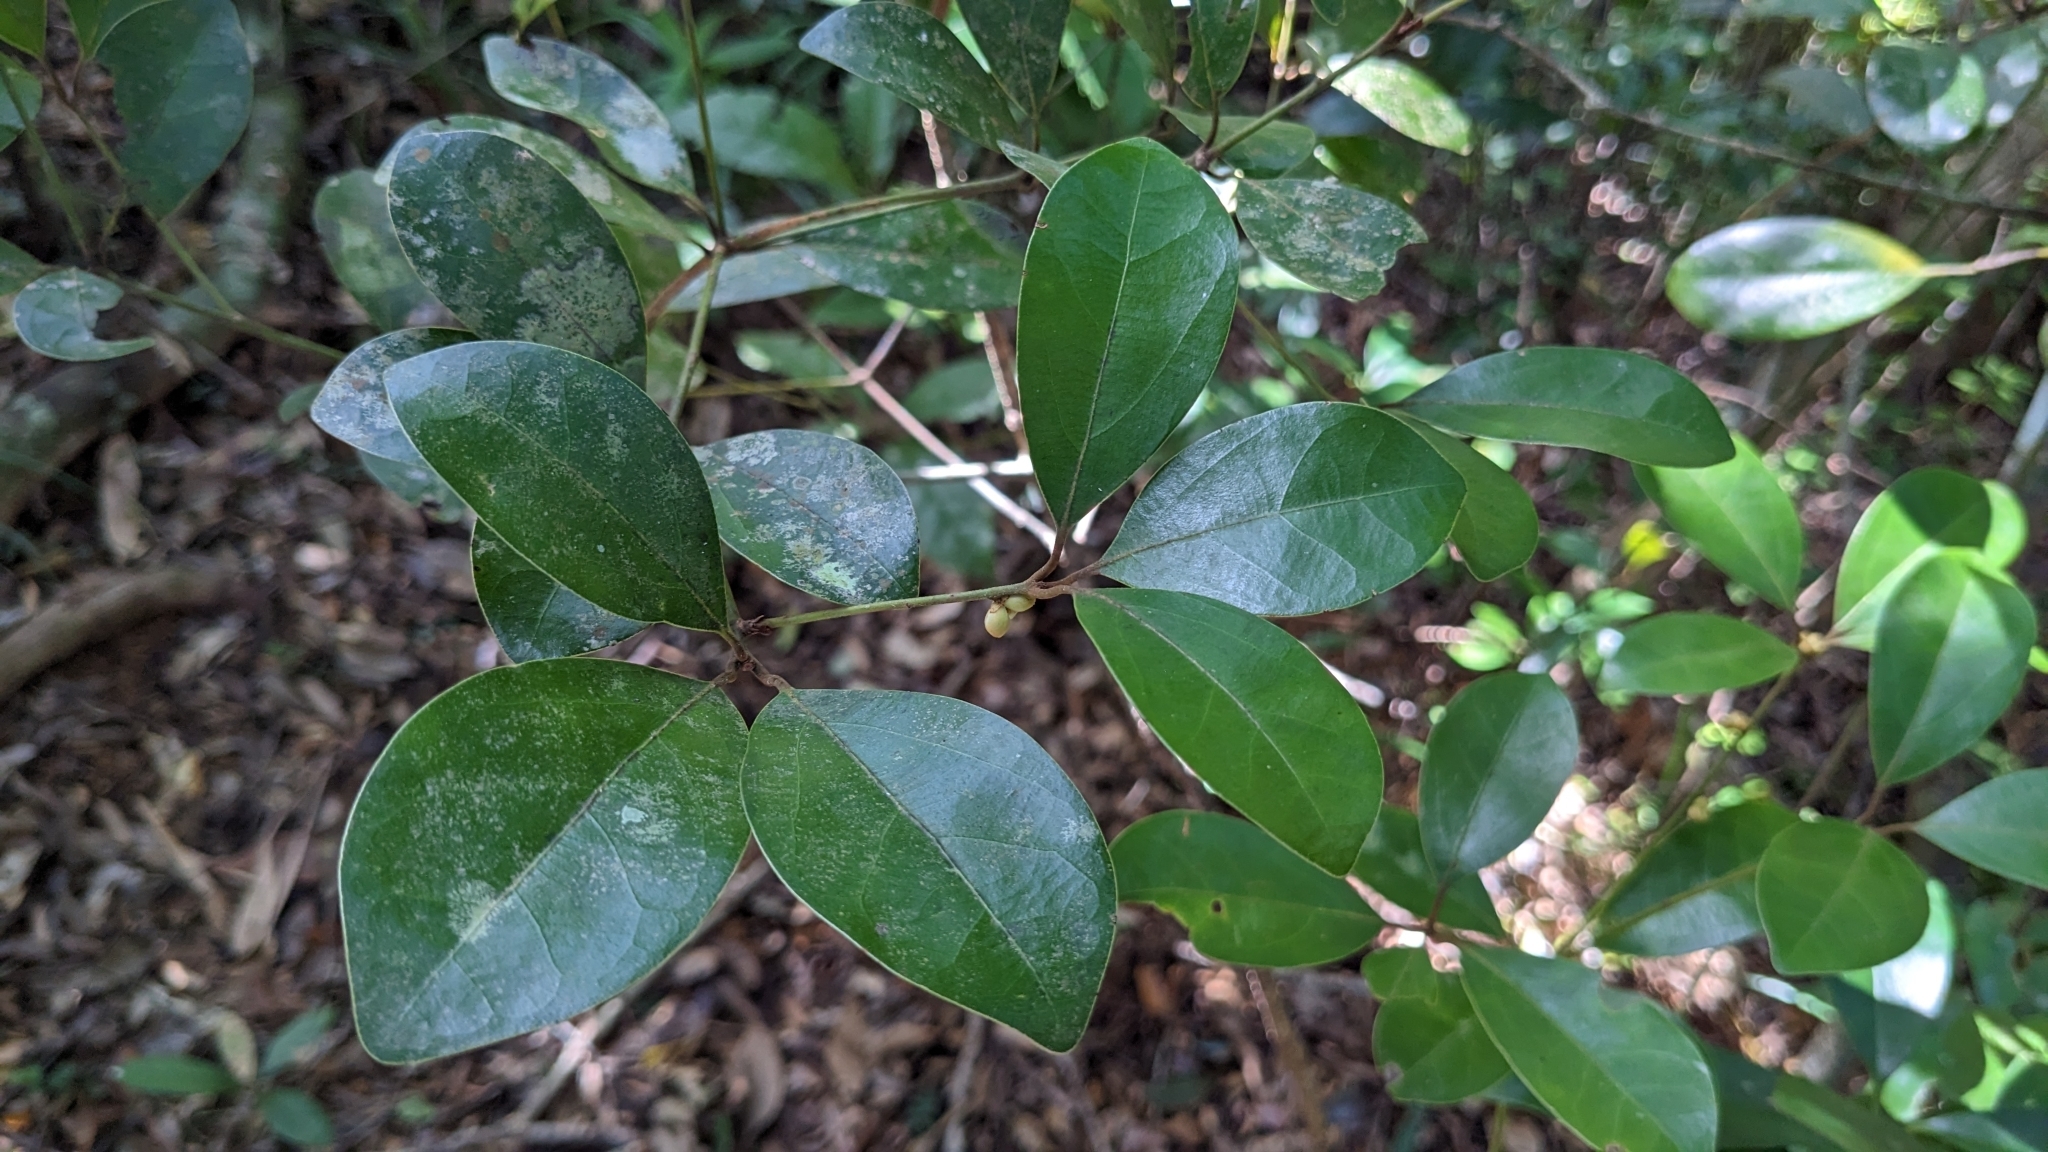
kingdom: Plantae
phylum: Tracheophyta
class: Magnoliopsida
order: Laurales
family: Lauraceae
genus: Neolitsea
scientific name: Neolitsea buisanensis
